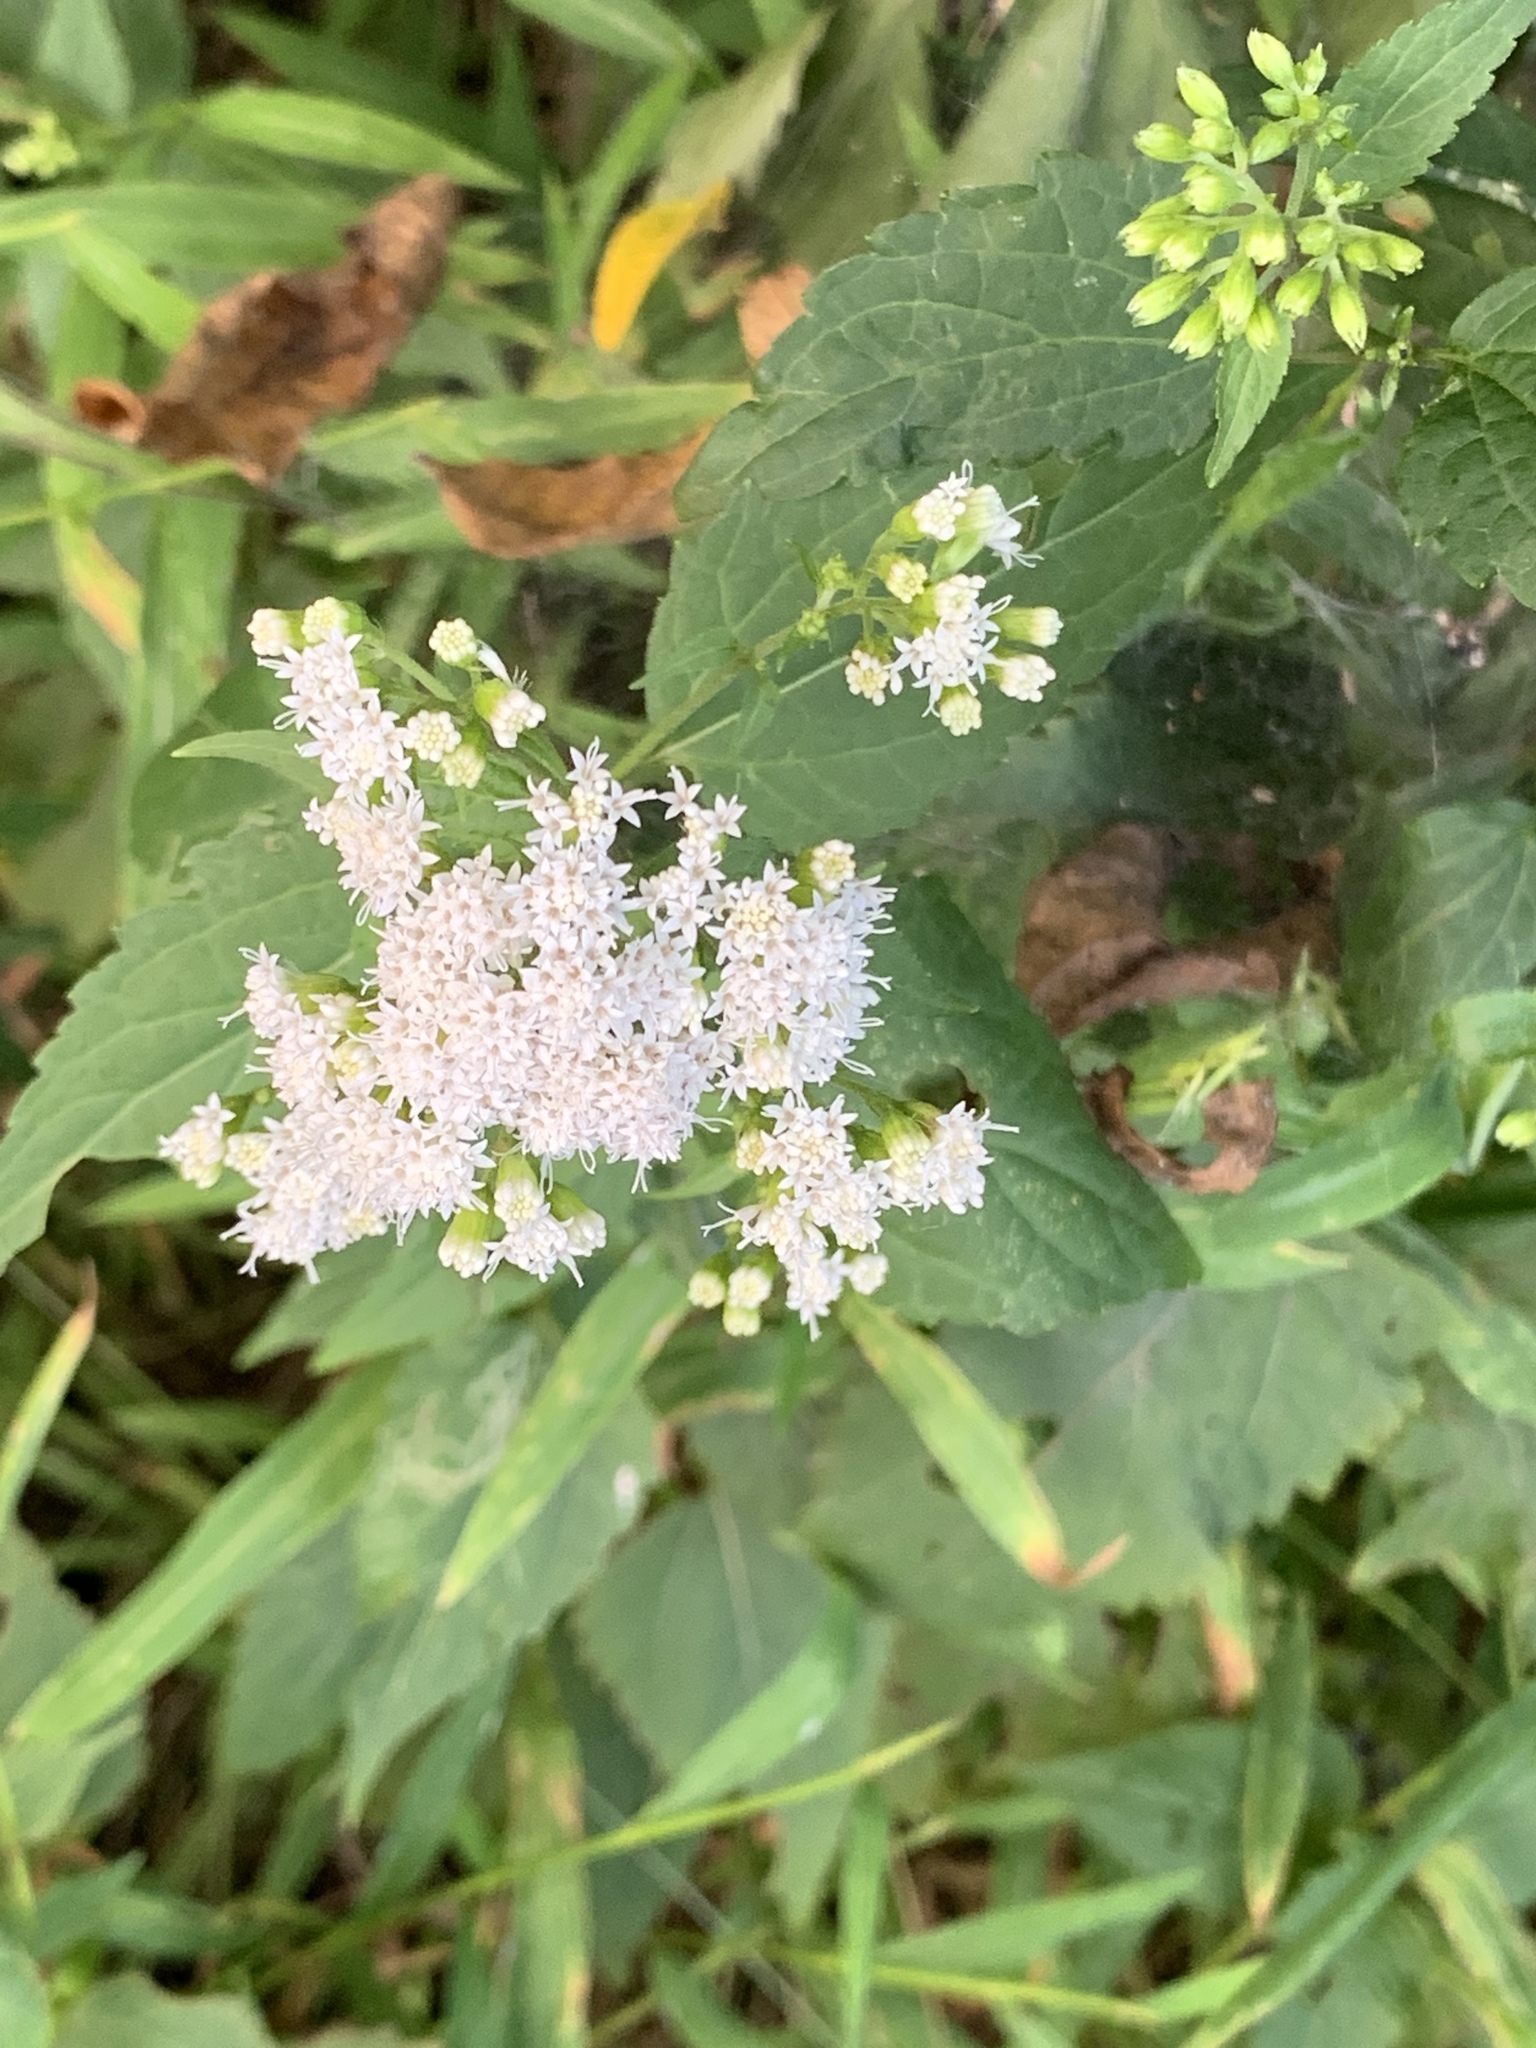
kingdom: Plantae
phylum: Tracheophyta
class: Magnoliopsida
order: Asterales
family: Asteraceae
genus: Ageratina
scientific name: Ageratina altissima
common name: White snakeroot
